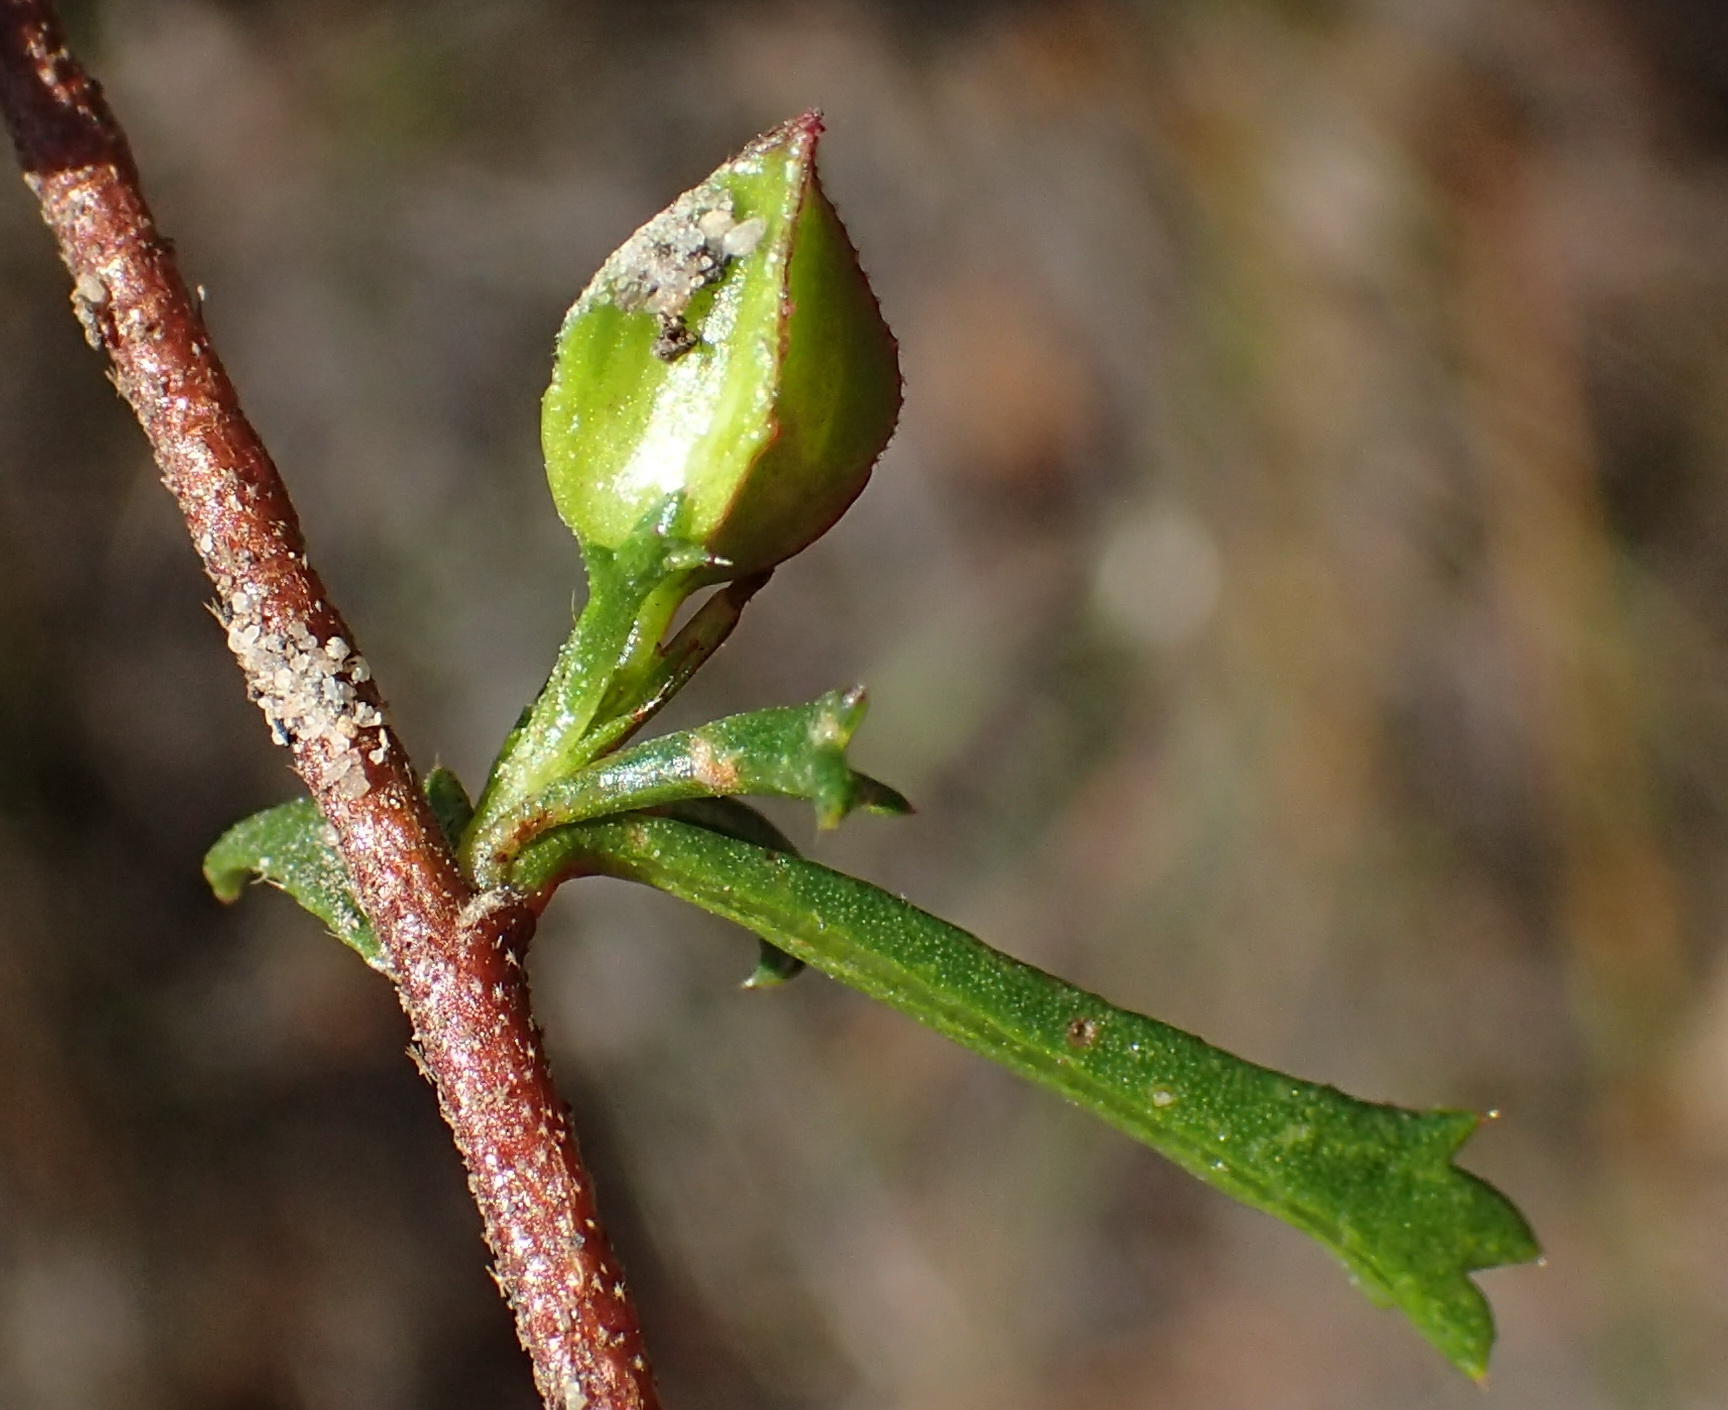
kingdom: Plantae
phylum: Tracheophyta
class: Magnoliopsida
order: Malvales
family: Malvaceae
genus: Hermannia
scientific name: Hermannia angularis
